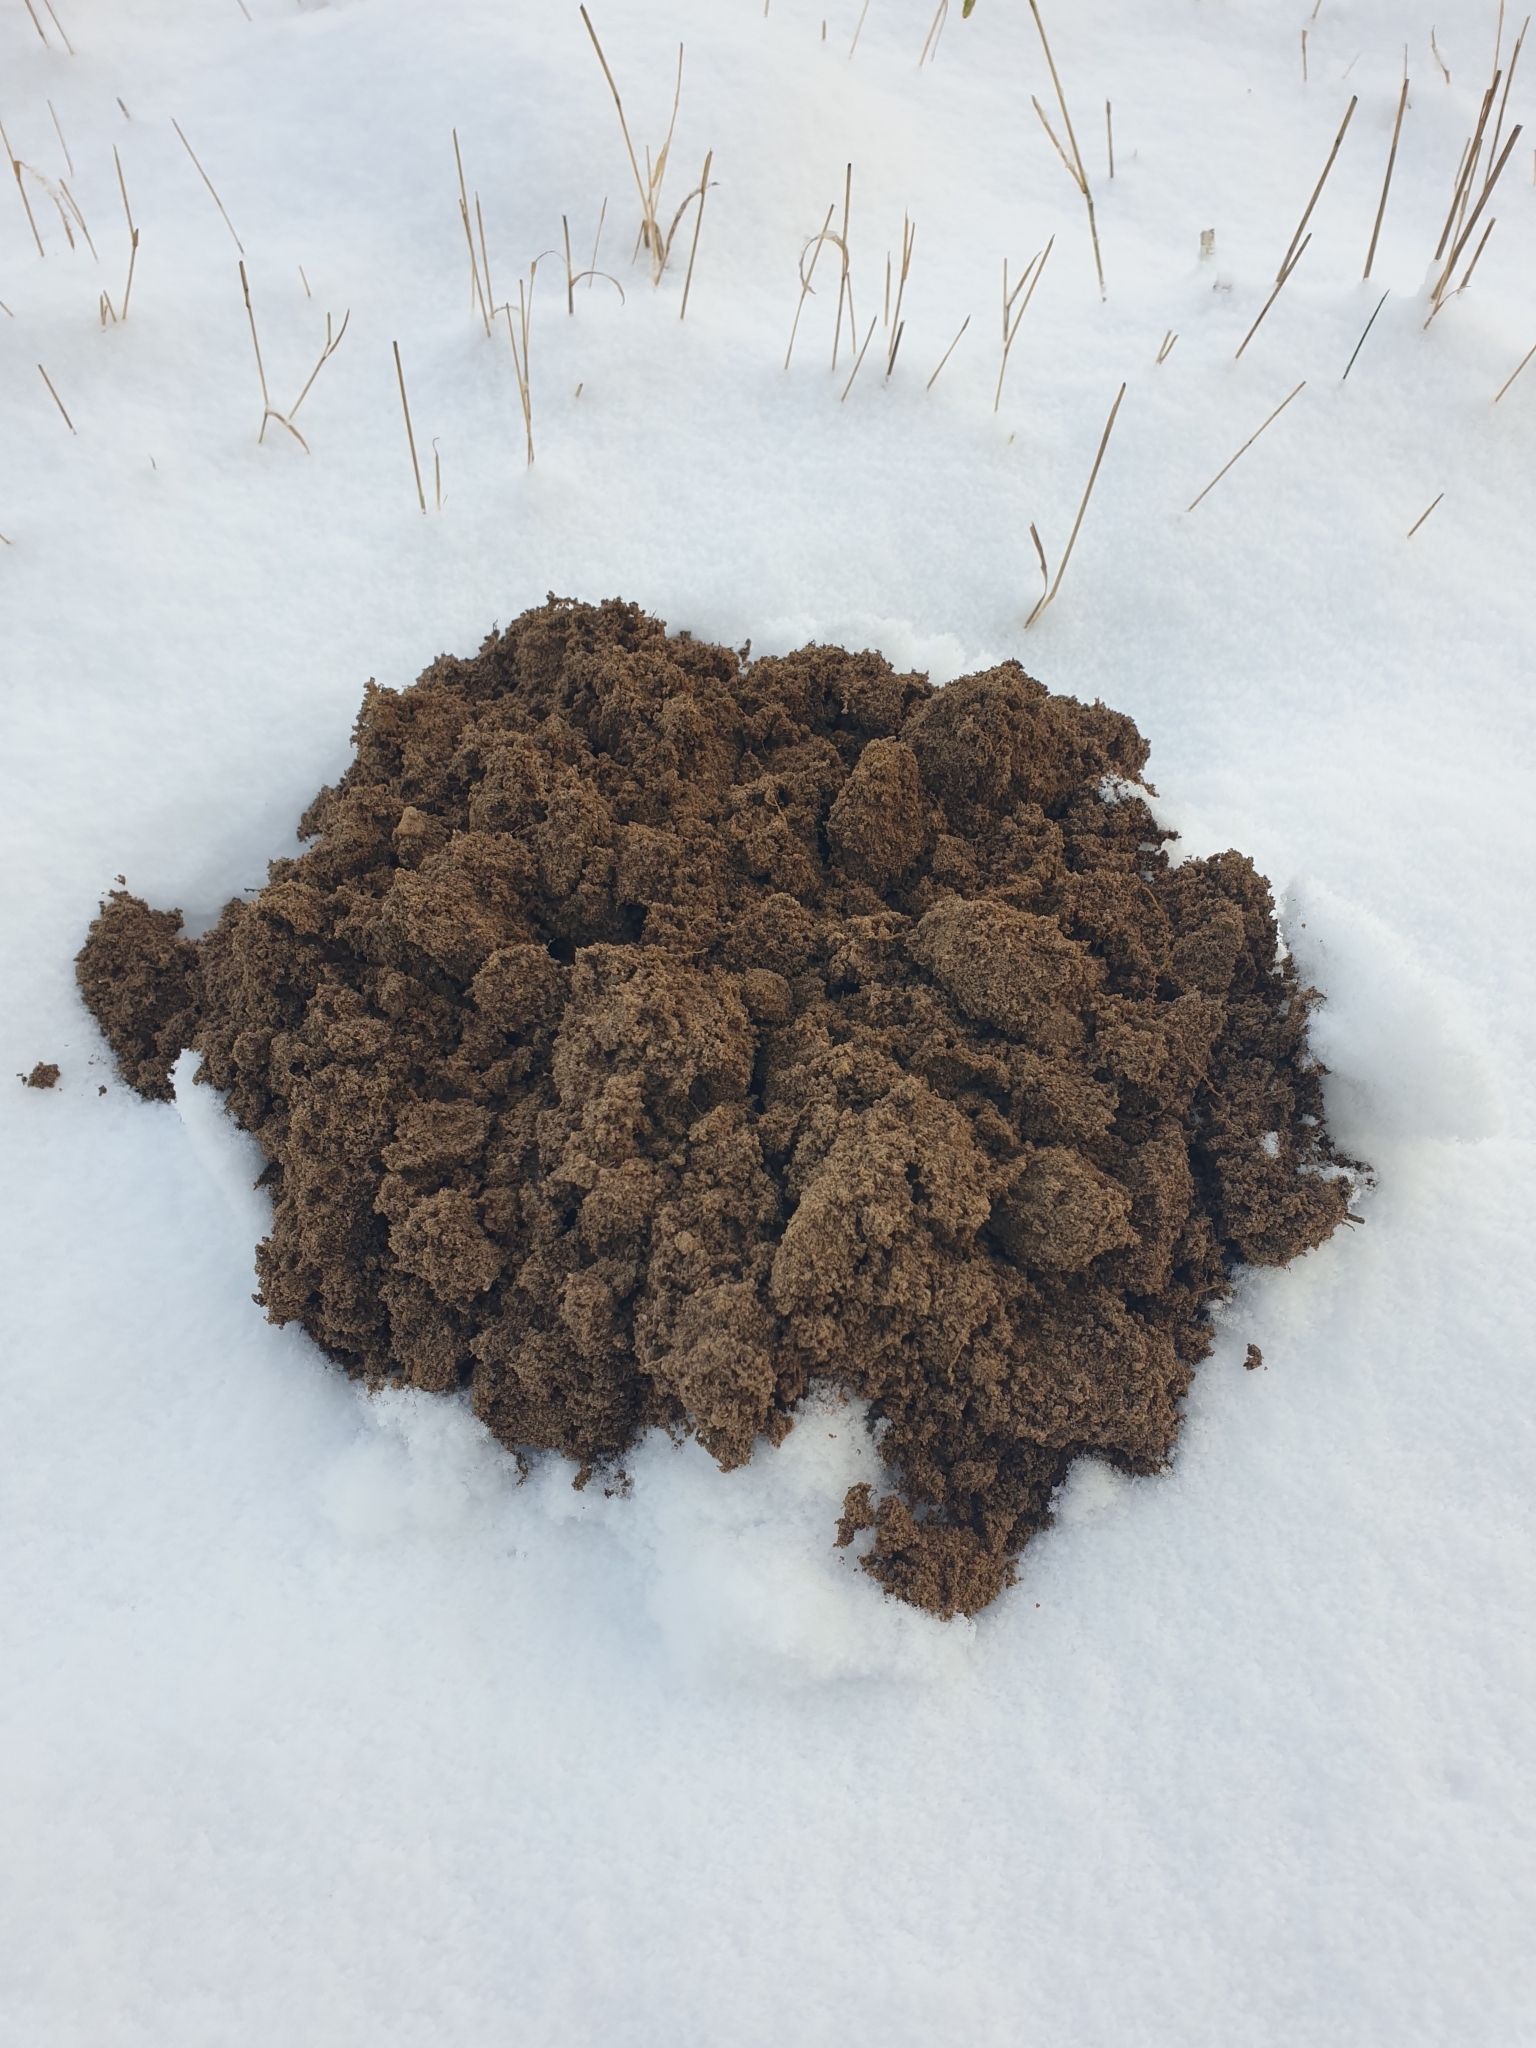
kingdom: Animalia
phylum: Chordata
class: Mammalia
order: Soricomorpha
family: Talpidae
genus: Talpa
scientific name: Talpa europaea
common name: European mole
